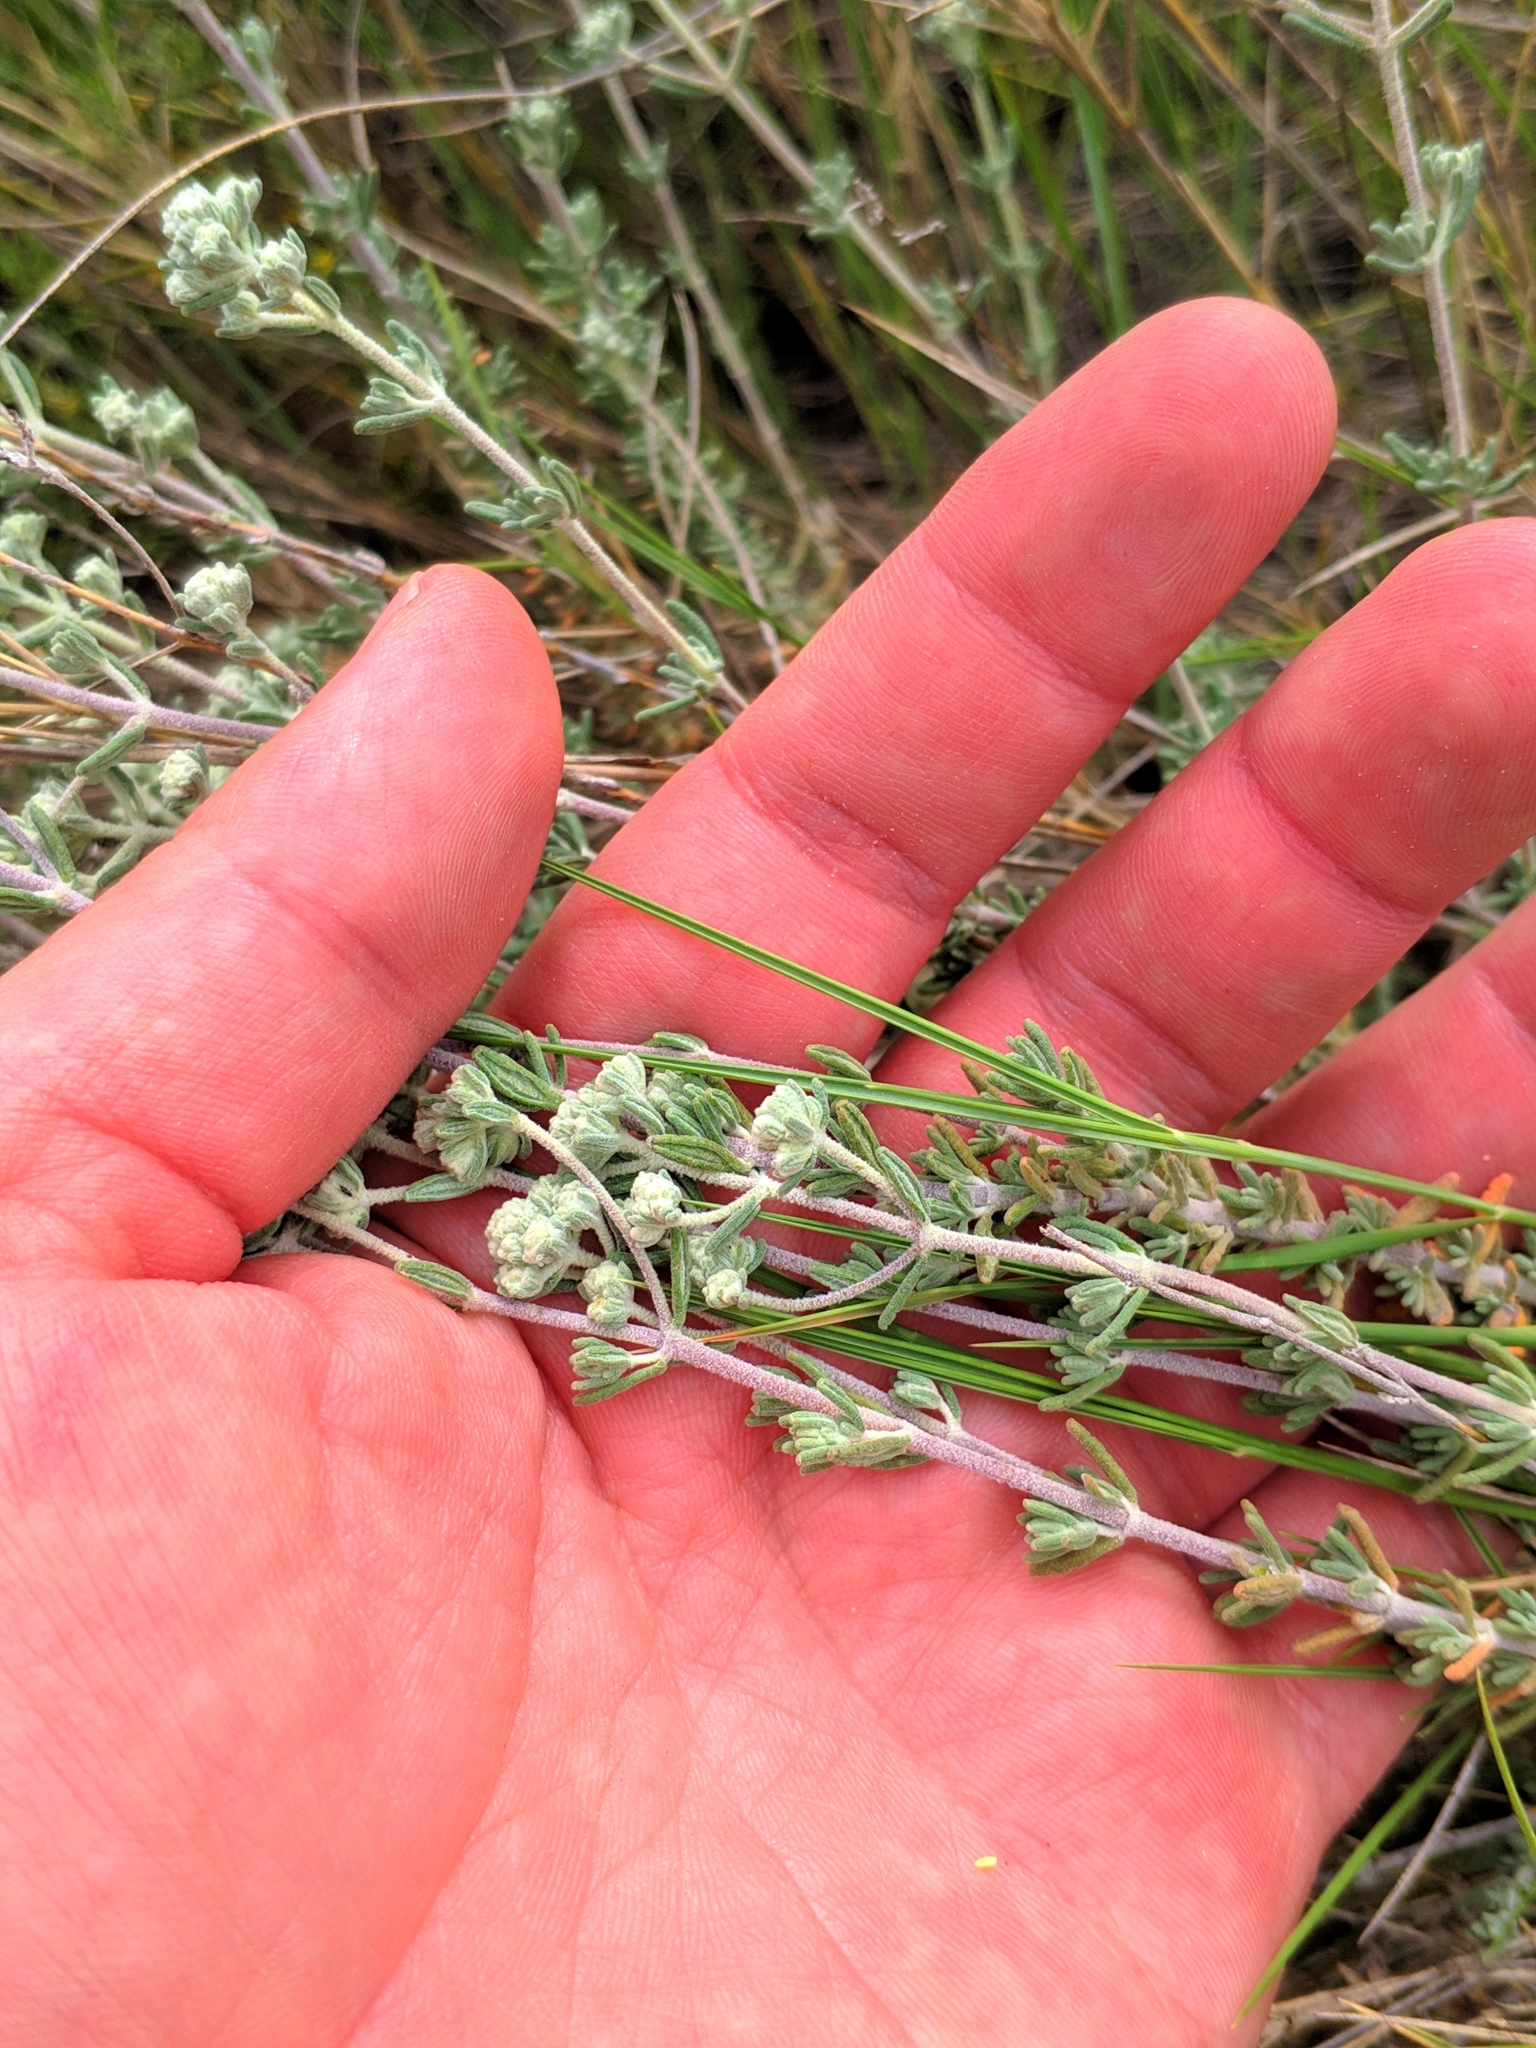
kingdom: Plantae
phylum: Tracheophyta
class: Magnoliopsida
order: Lamiales
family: Lamiaceae
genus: Teucrium
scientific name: Teucrium capitatum
